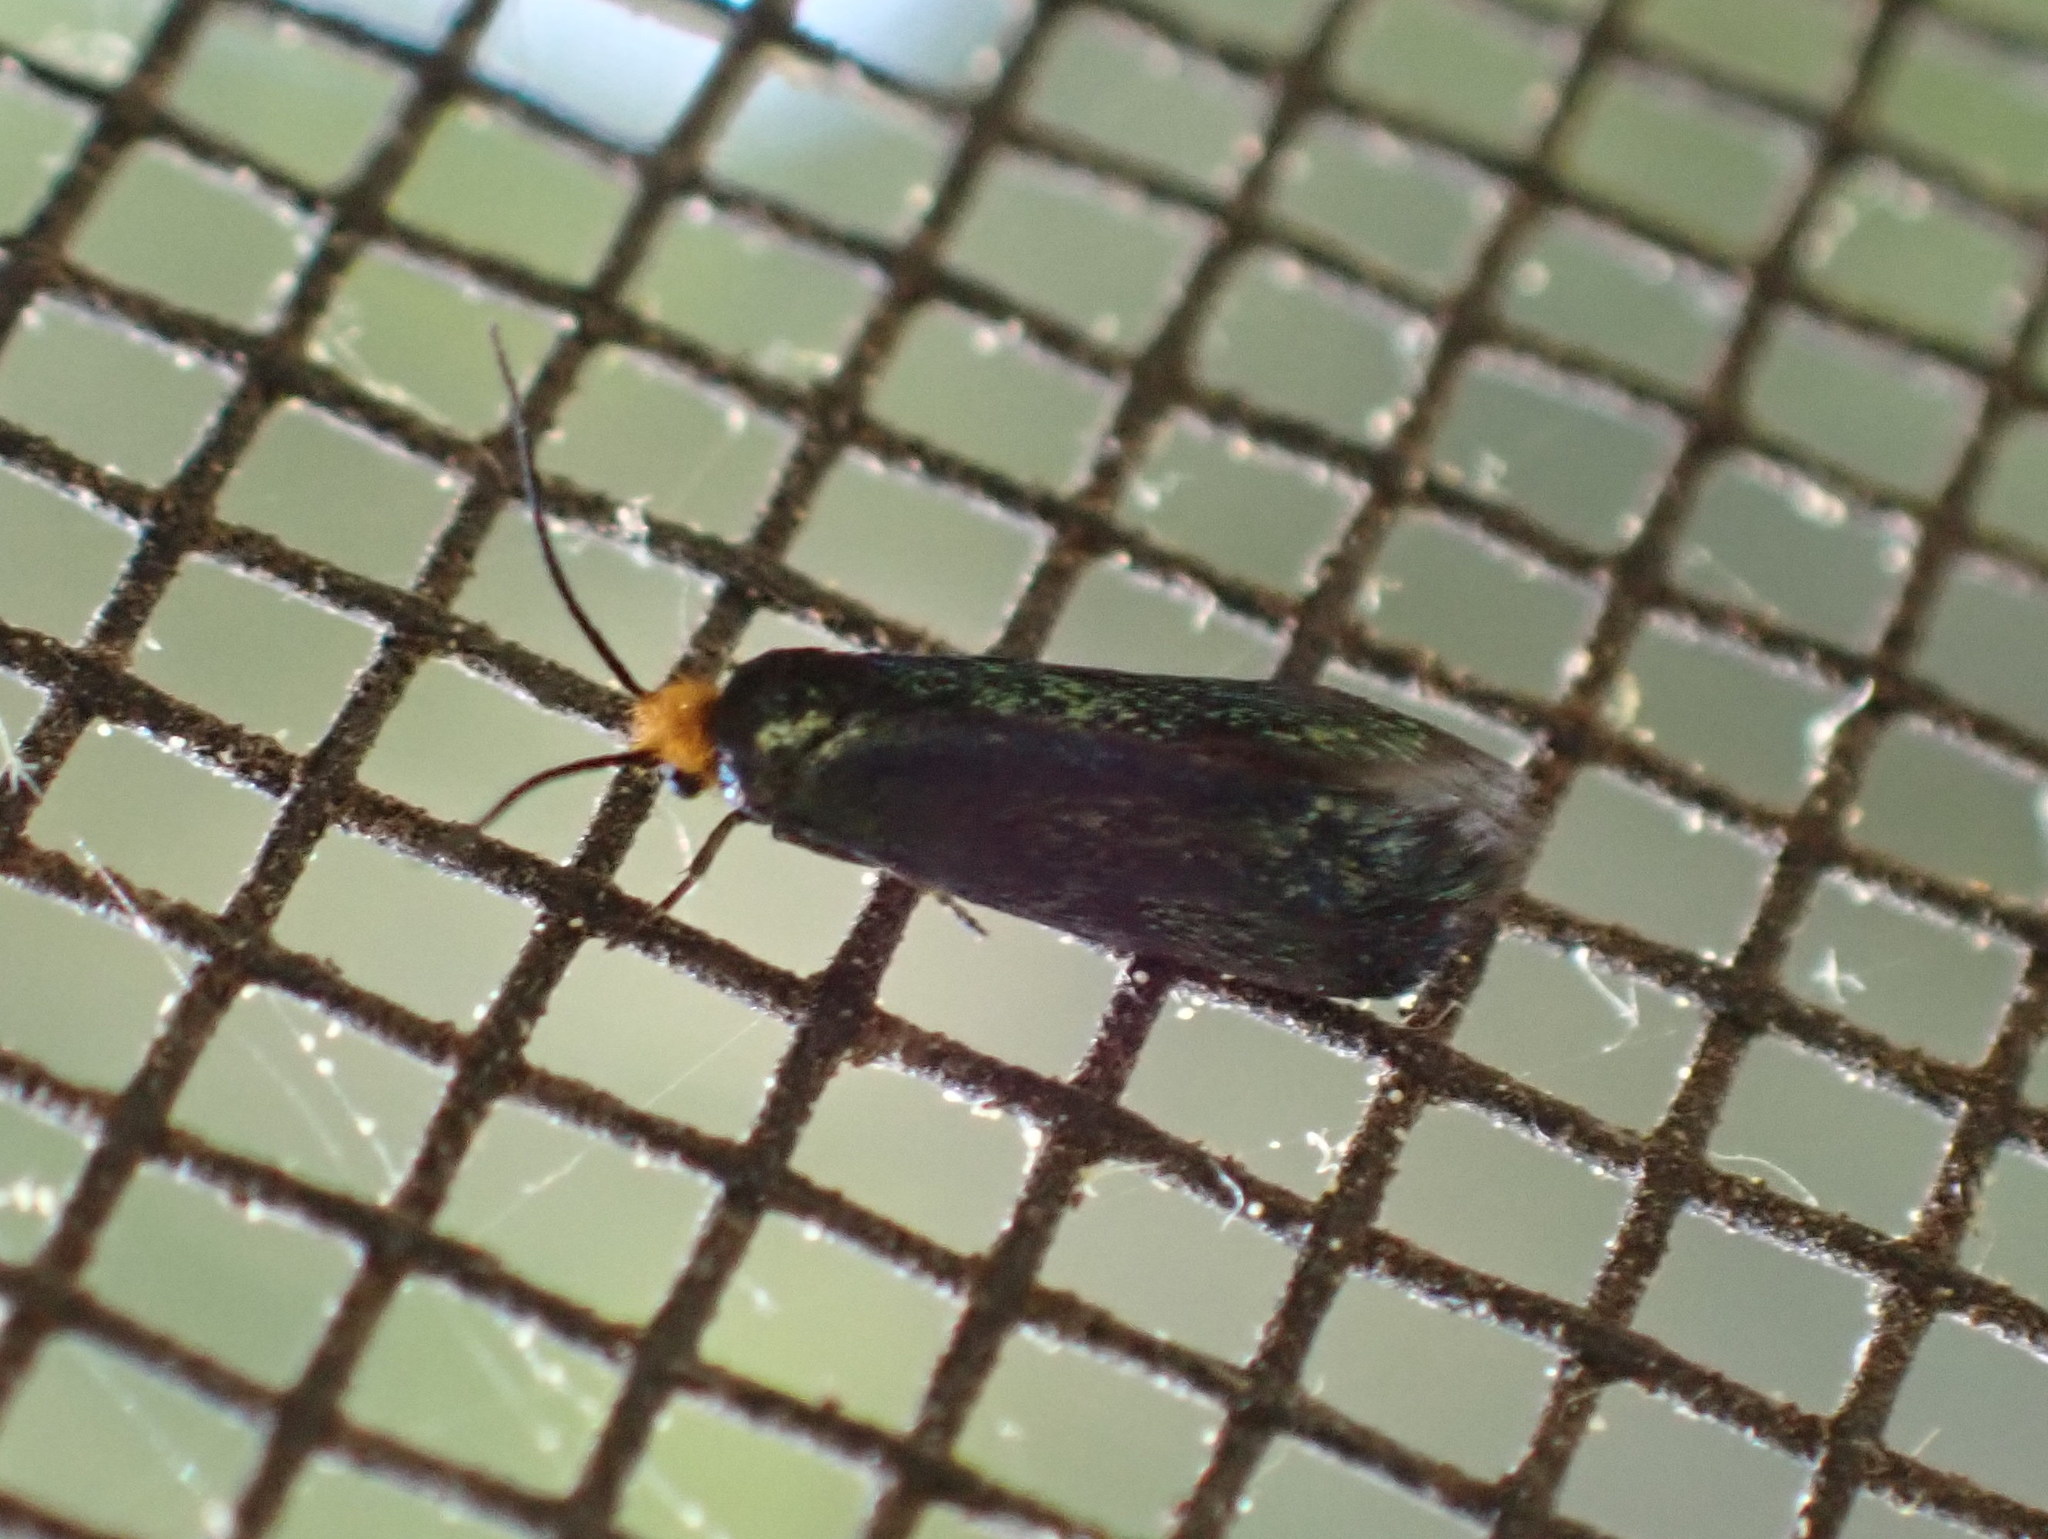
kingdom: Animalia
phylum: Arthropoda
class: Insecta
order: Lepidoptera
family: Incurvariidae
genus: Paraclemensia
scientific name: Paraclemensia acerifoliella
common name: Maple leafcutter
